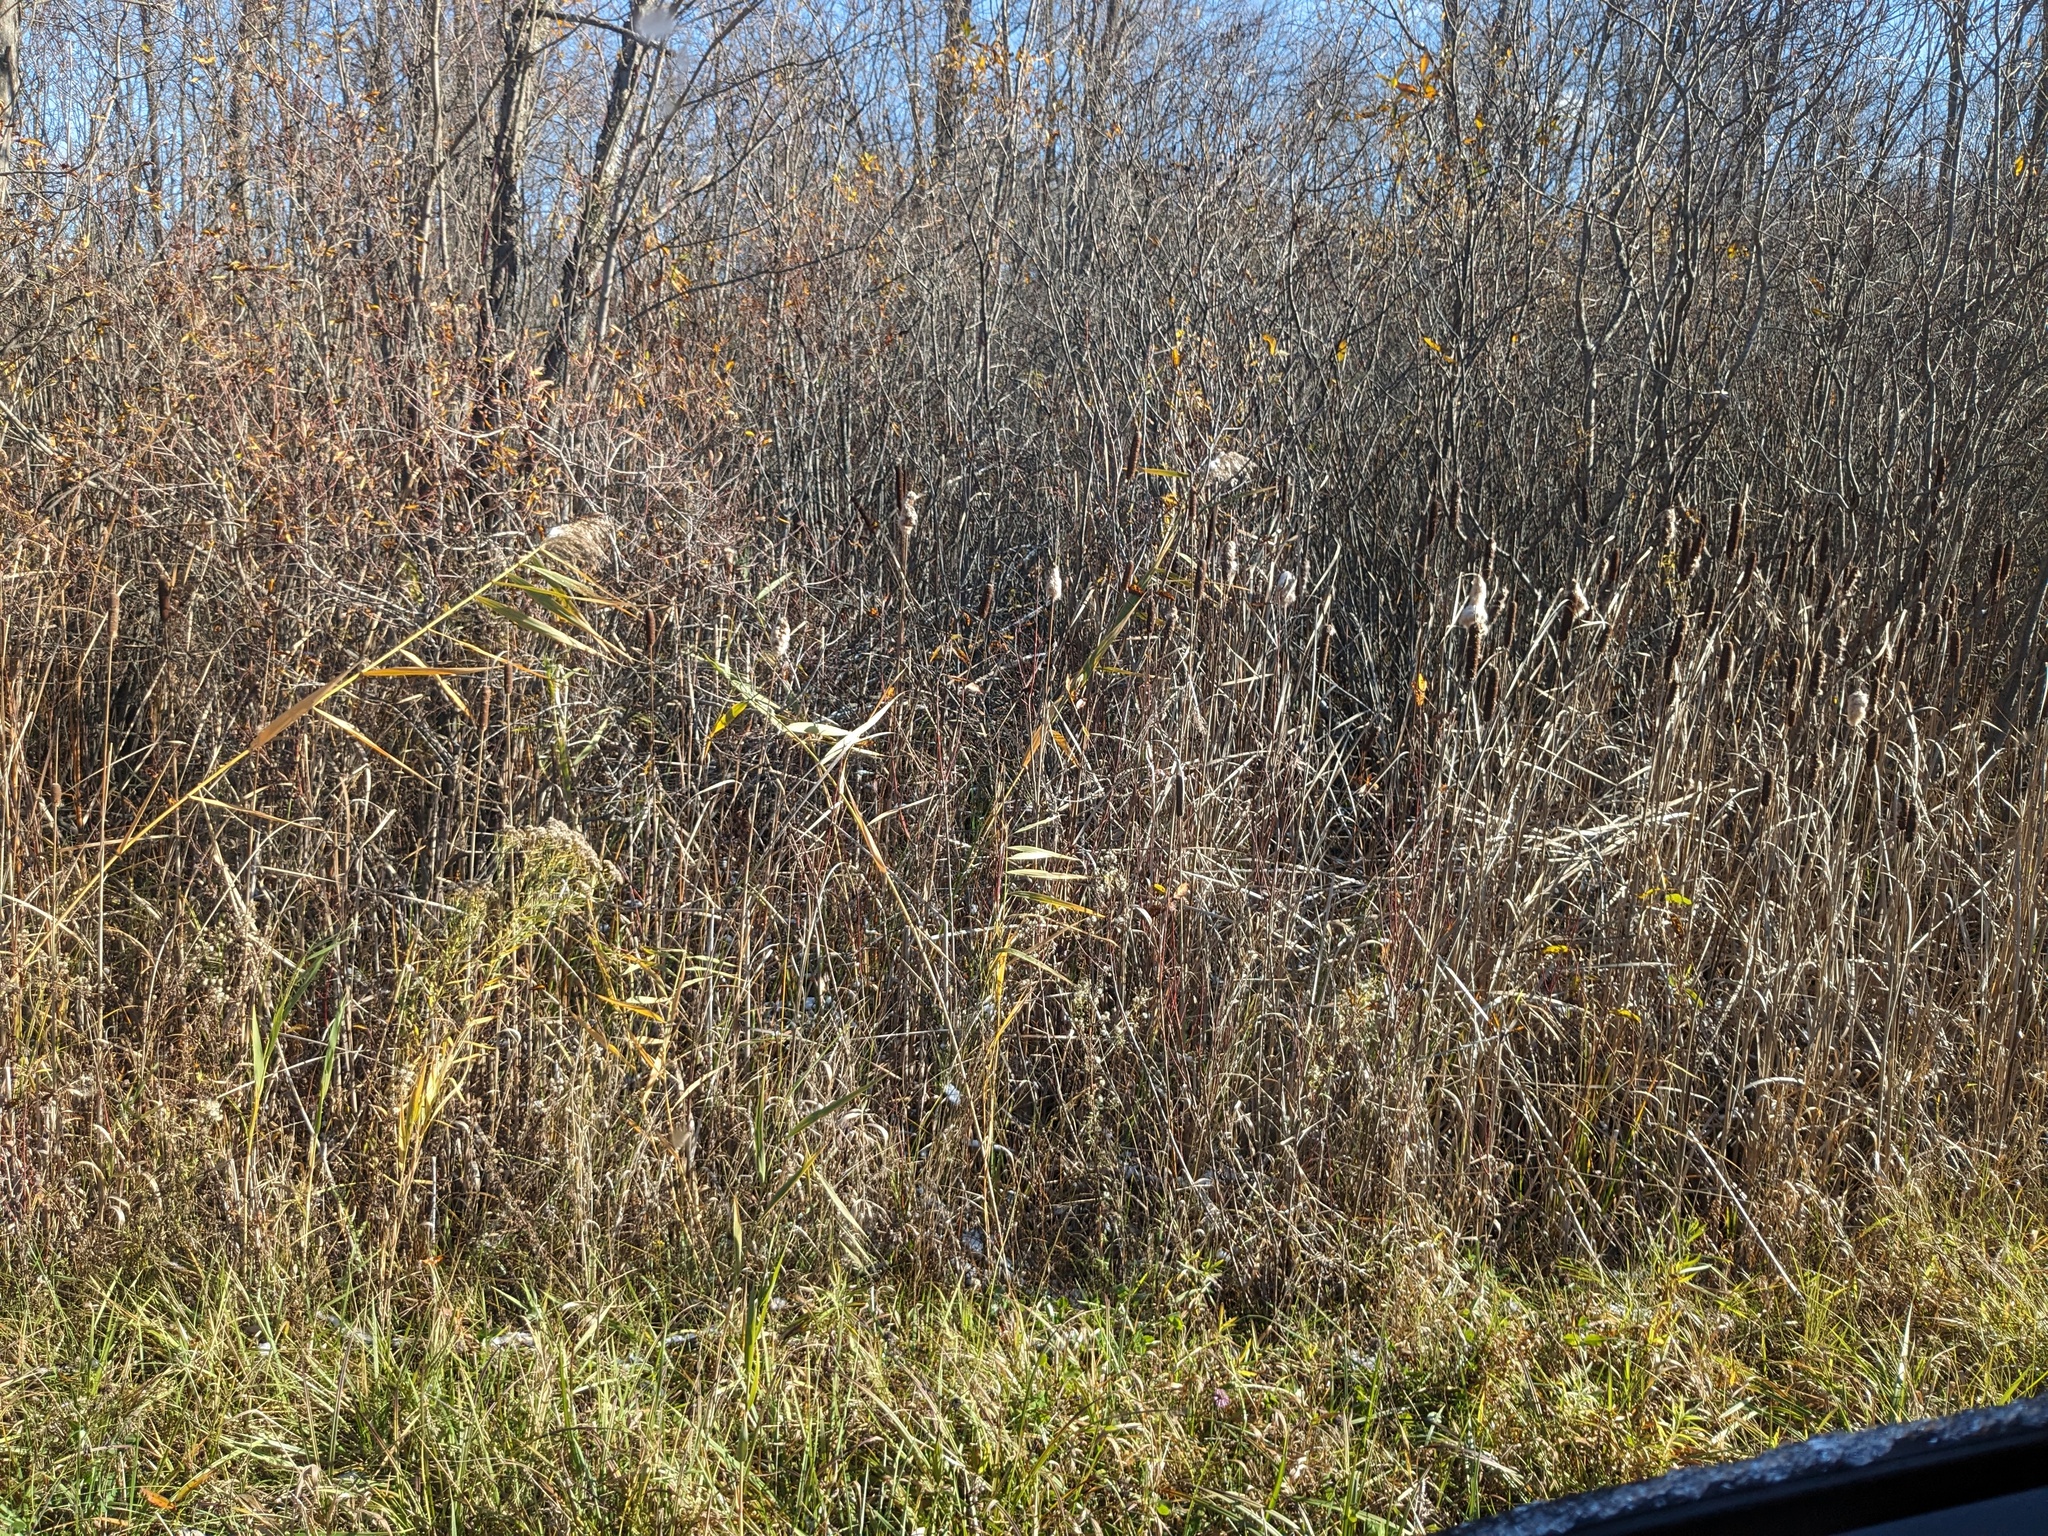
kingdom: Plantae
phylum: Tracheophyta
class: Liliopsida
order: Poales
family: Poaceae
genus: Phragmites
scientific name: Phragmites australis
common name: Common reed
